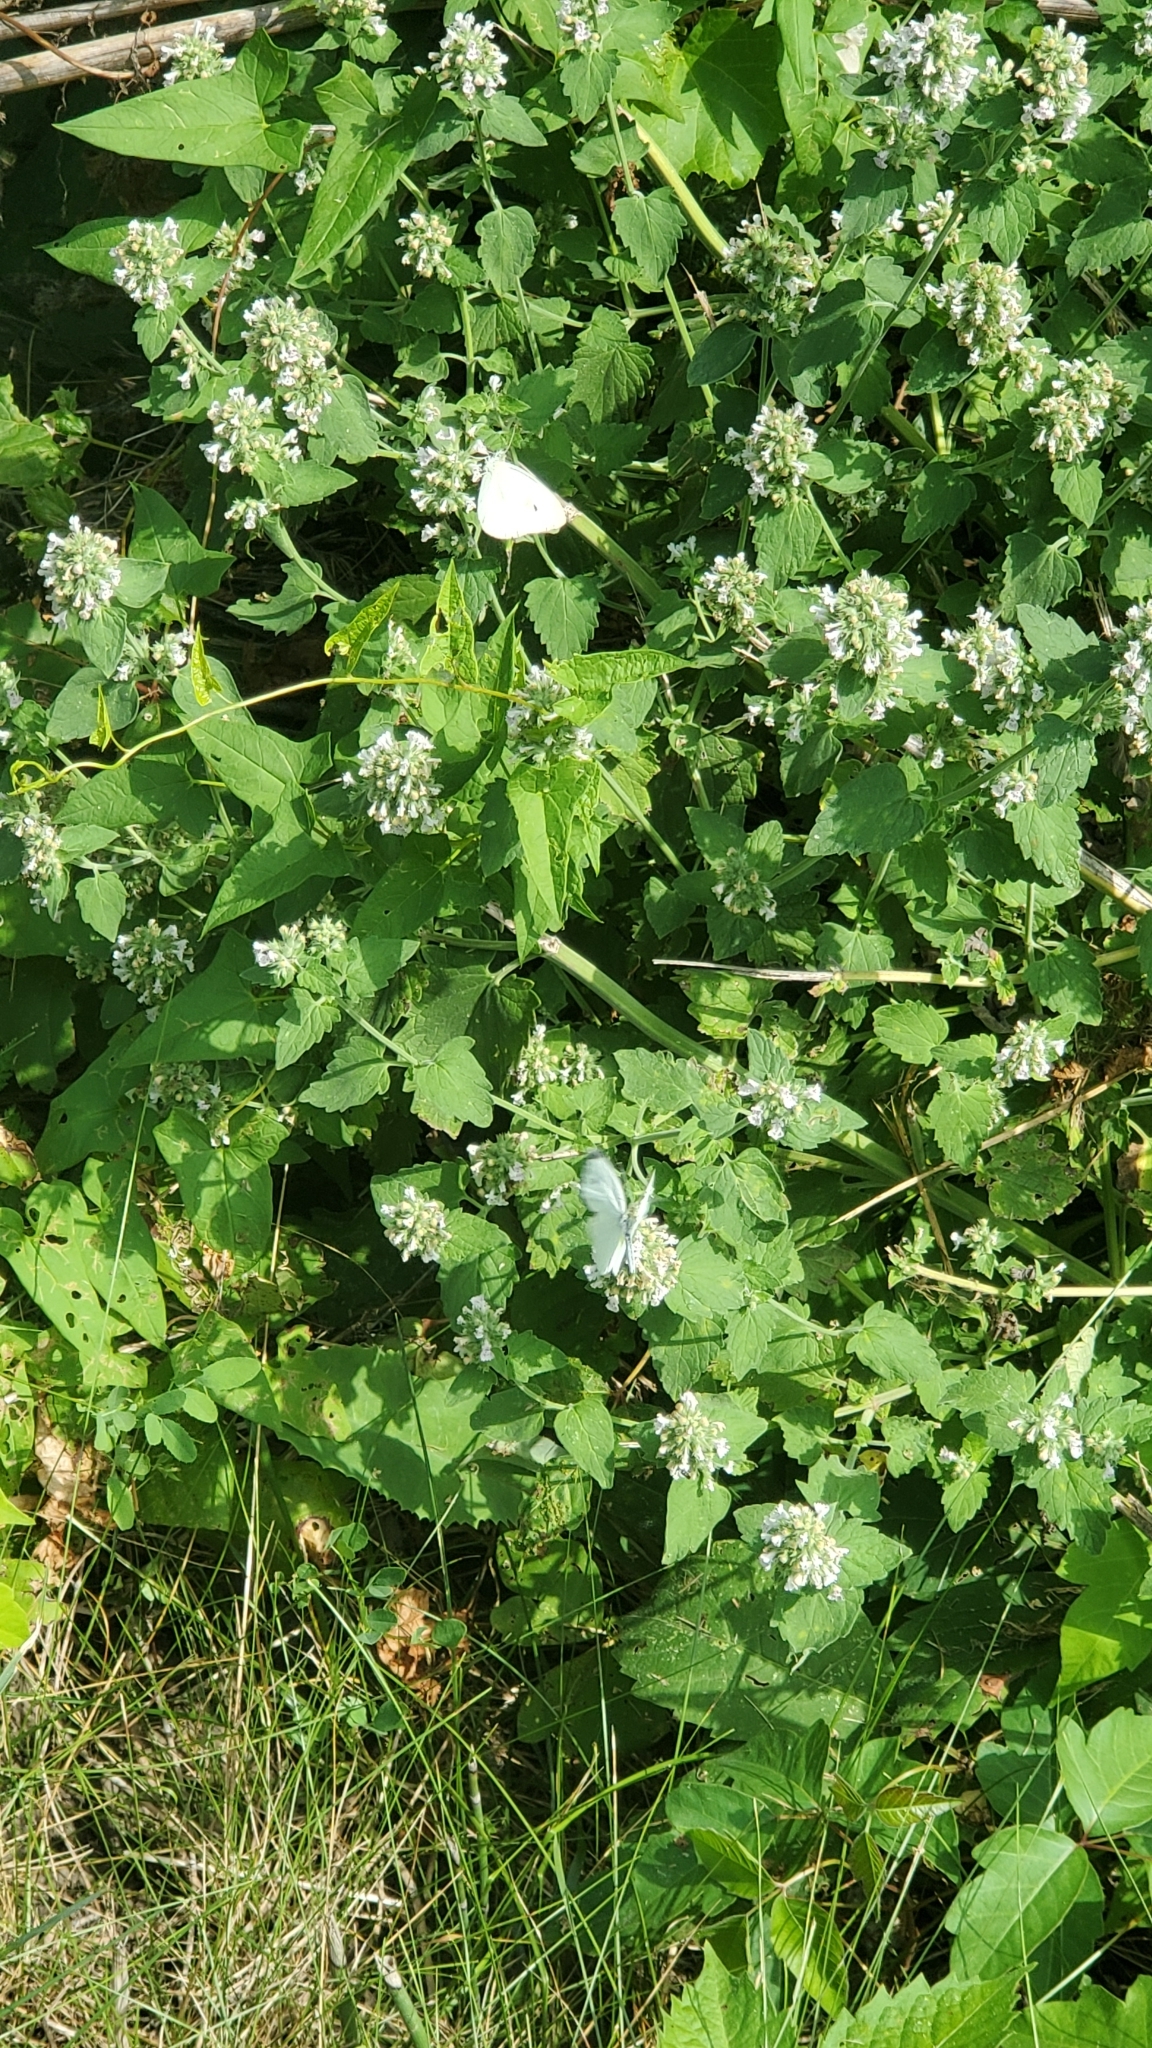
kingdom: Animalia
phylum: Arthropoda
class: Insecta
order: Lepidoptera
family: Pieridae
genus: Pieris
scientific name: Pieris rapae
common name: Small white
